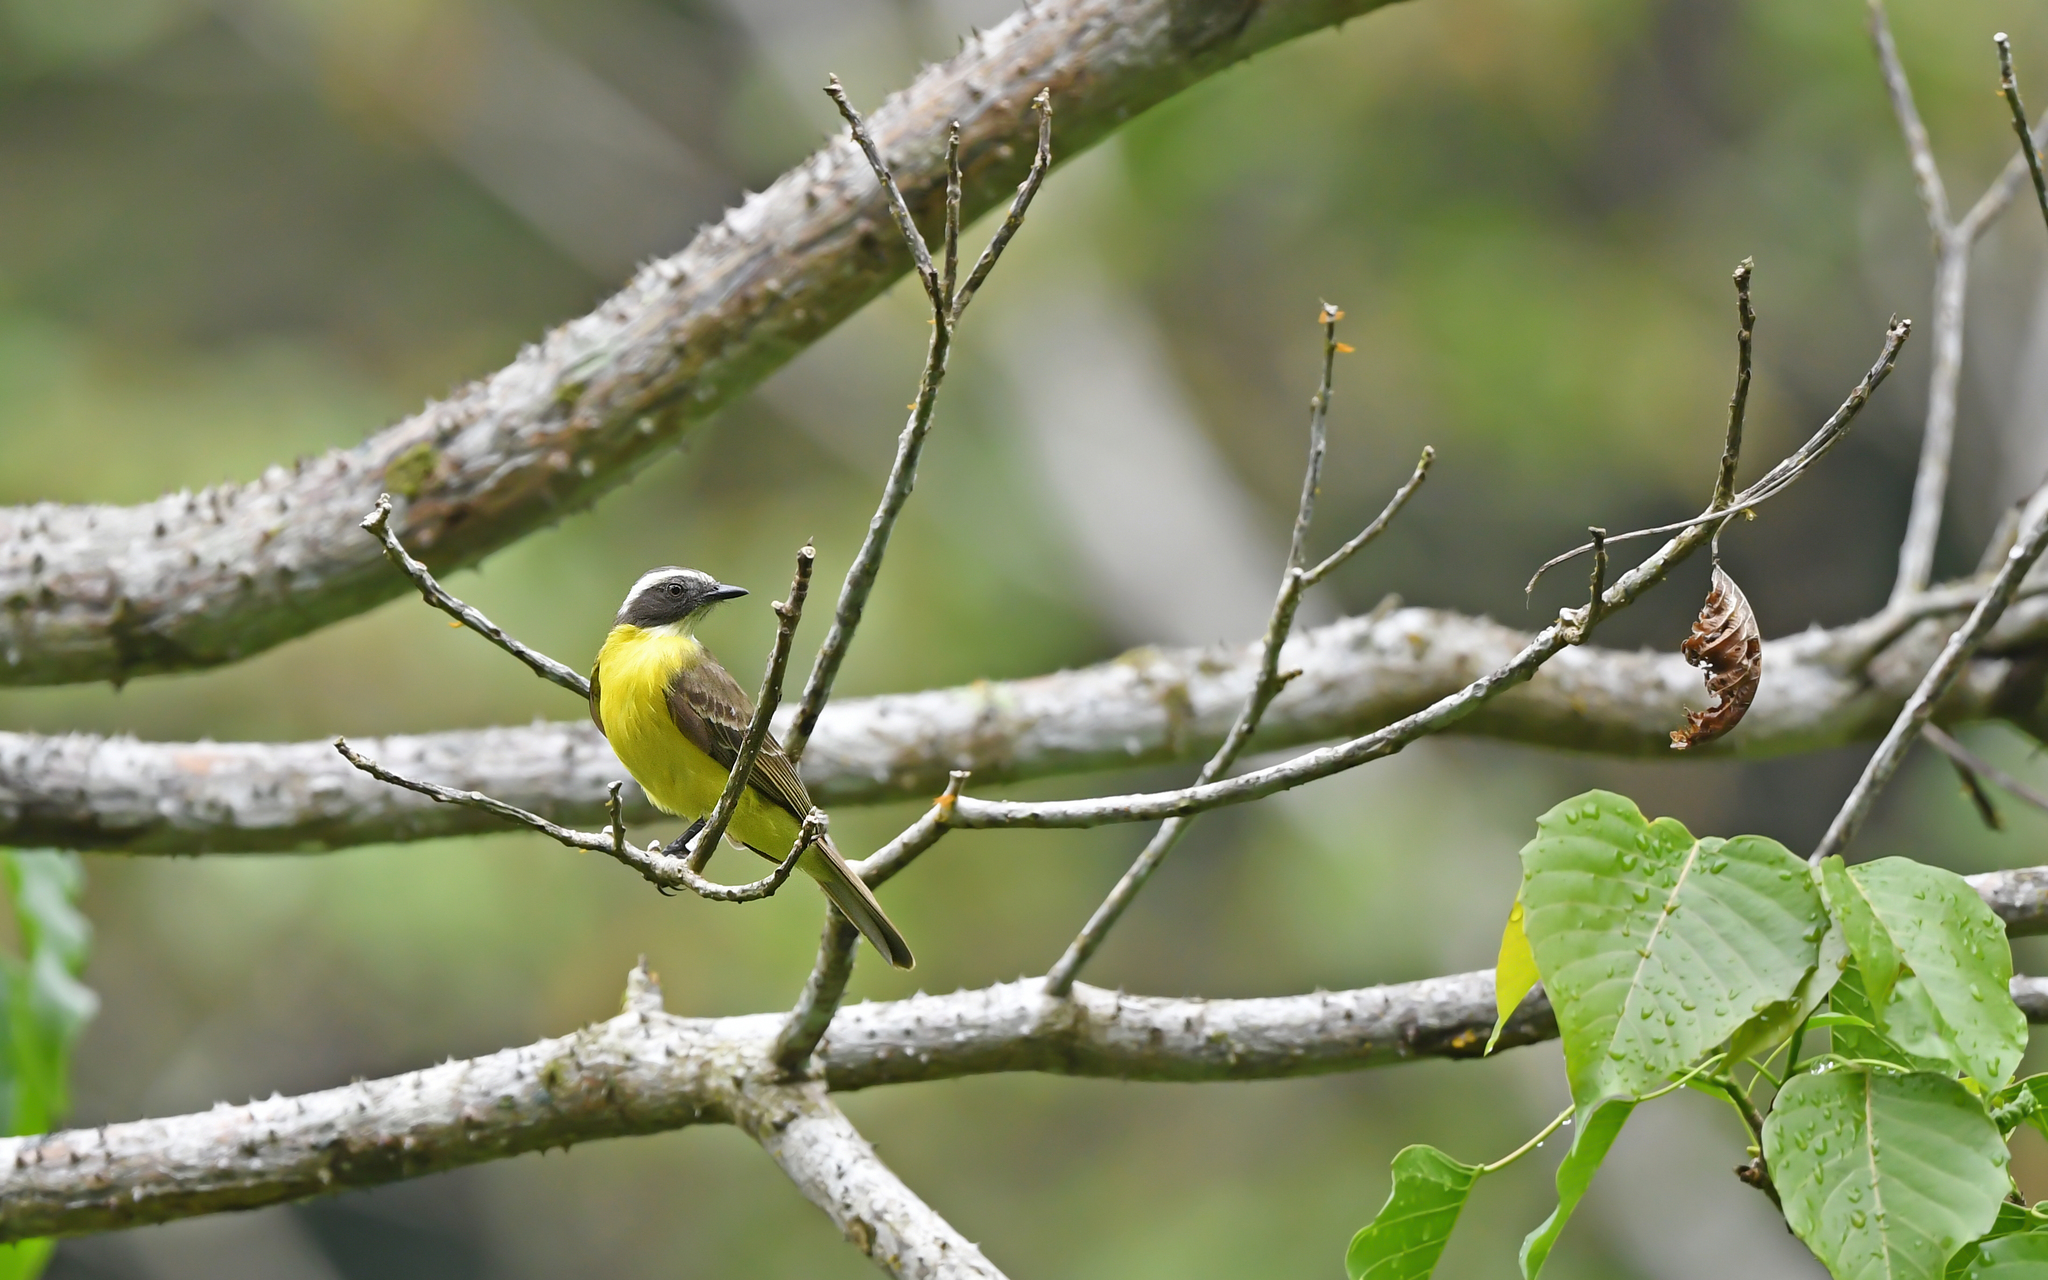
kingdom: Animalia
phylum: Chordata
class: Aves
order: Passeriformes
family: Tyrannidae
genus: Myiozetetes
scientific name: Myiozetetes similis
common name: Social flycatcher
